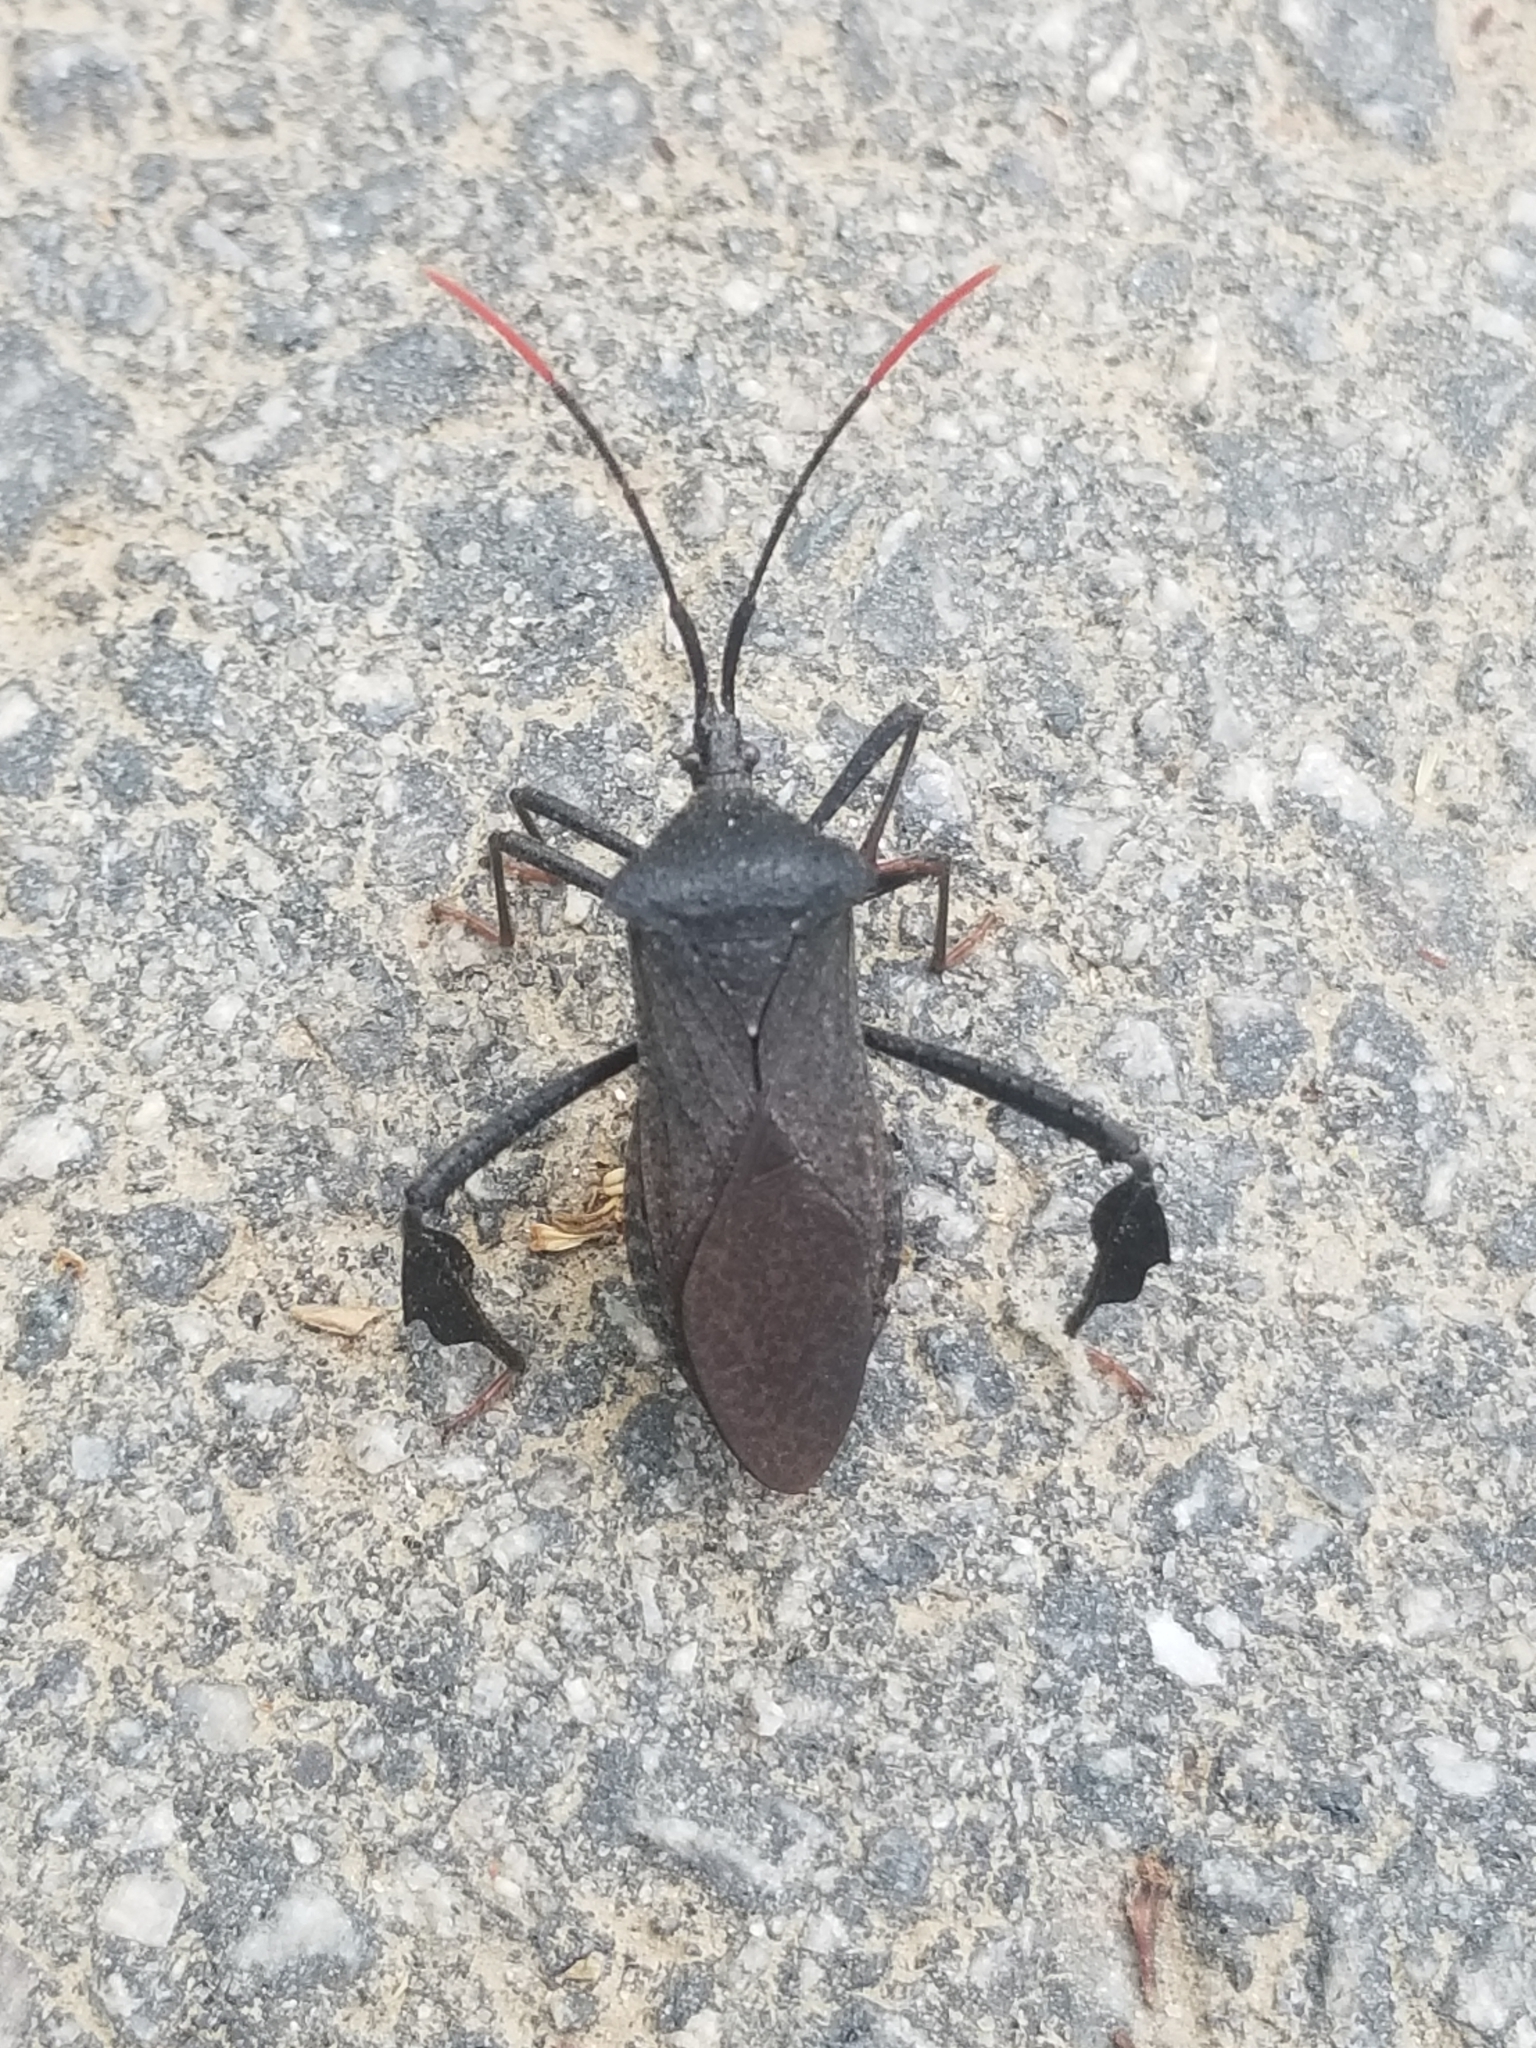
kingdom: Animalia
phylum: Arthropoda
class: Insecta
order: Hemiptera
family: Coreidae
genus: Acanthocephala
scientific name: Acanthocephala terminalis
